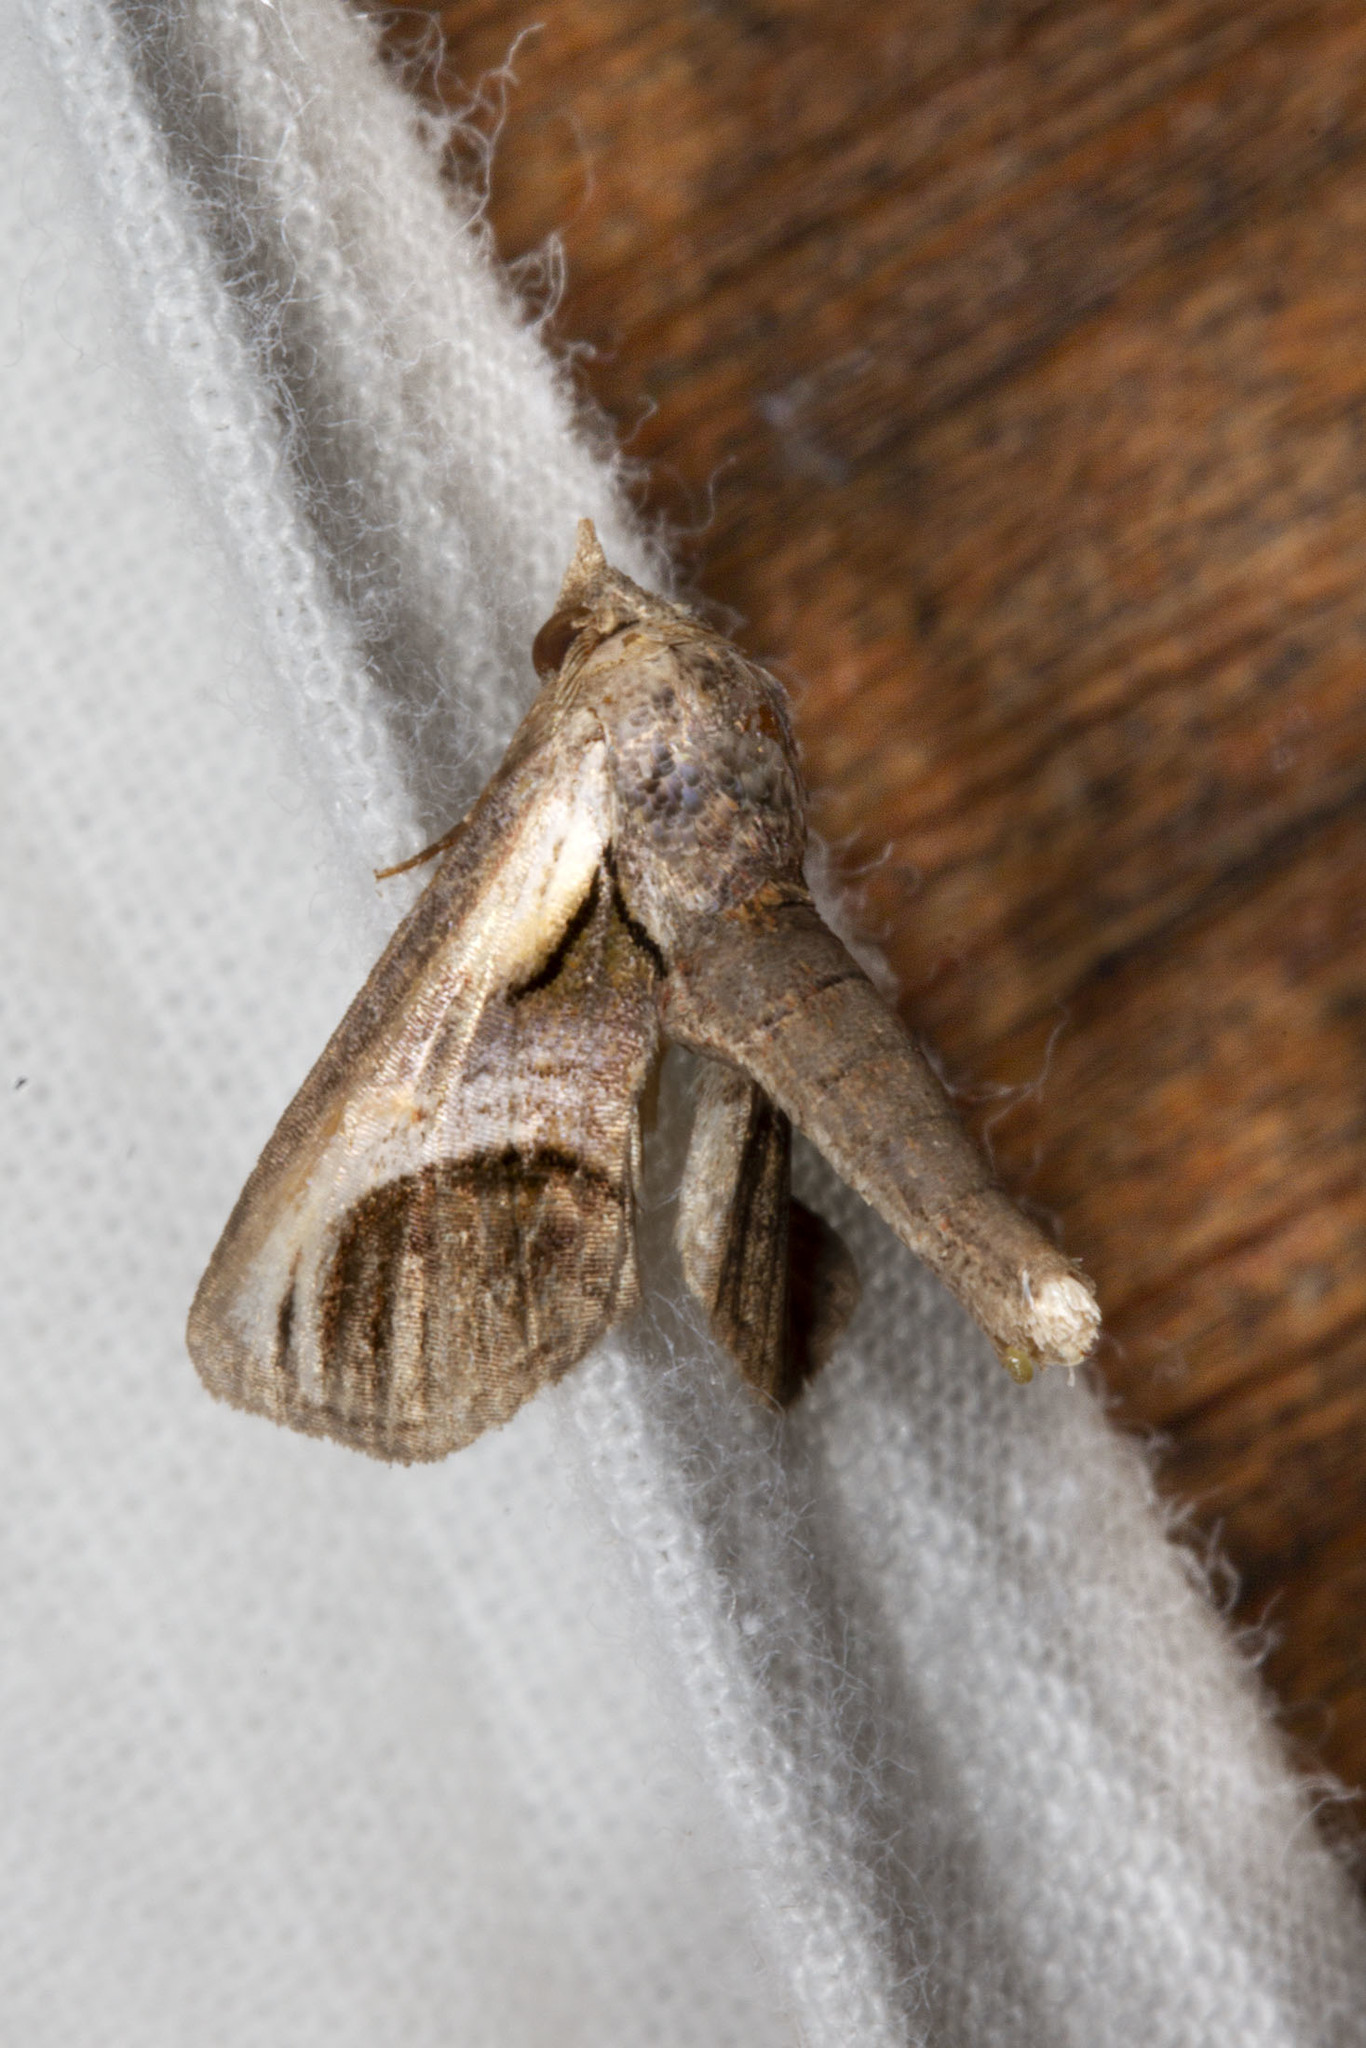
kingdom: Animalia
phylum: Arthropoda
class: Insecta
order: Lepidoptera
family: Euteliidae
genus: Paectes
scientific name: Paectes oculatrix
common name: Eyed paectes moth
